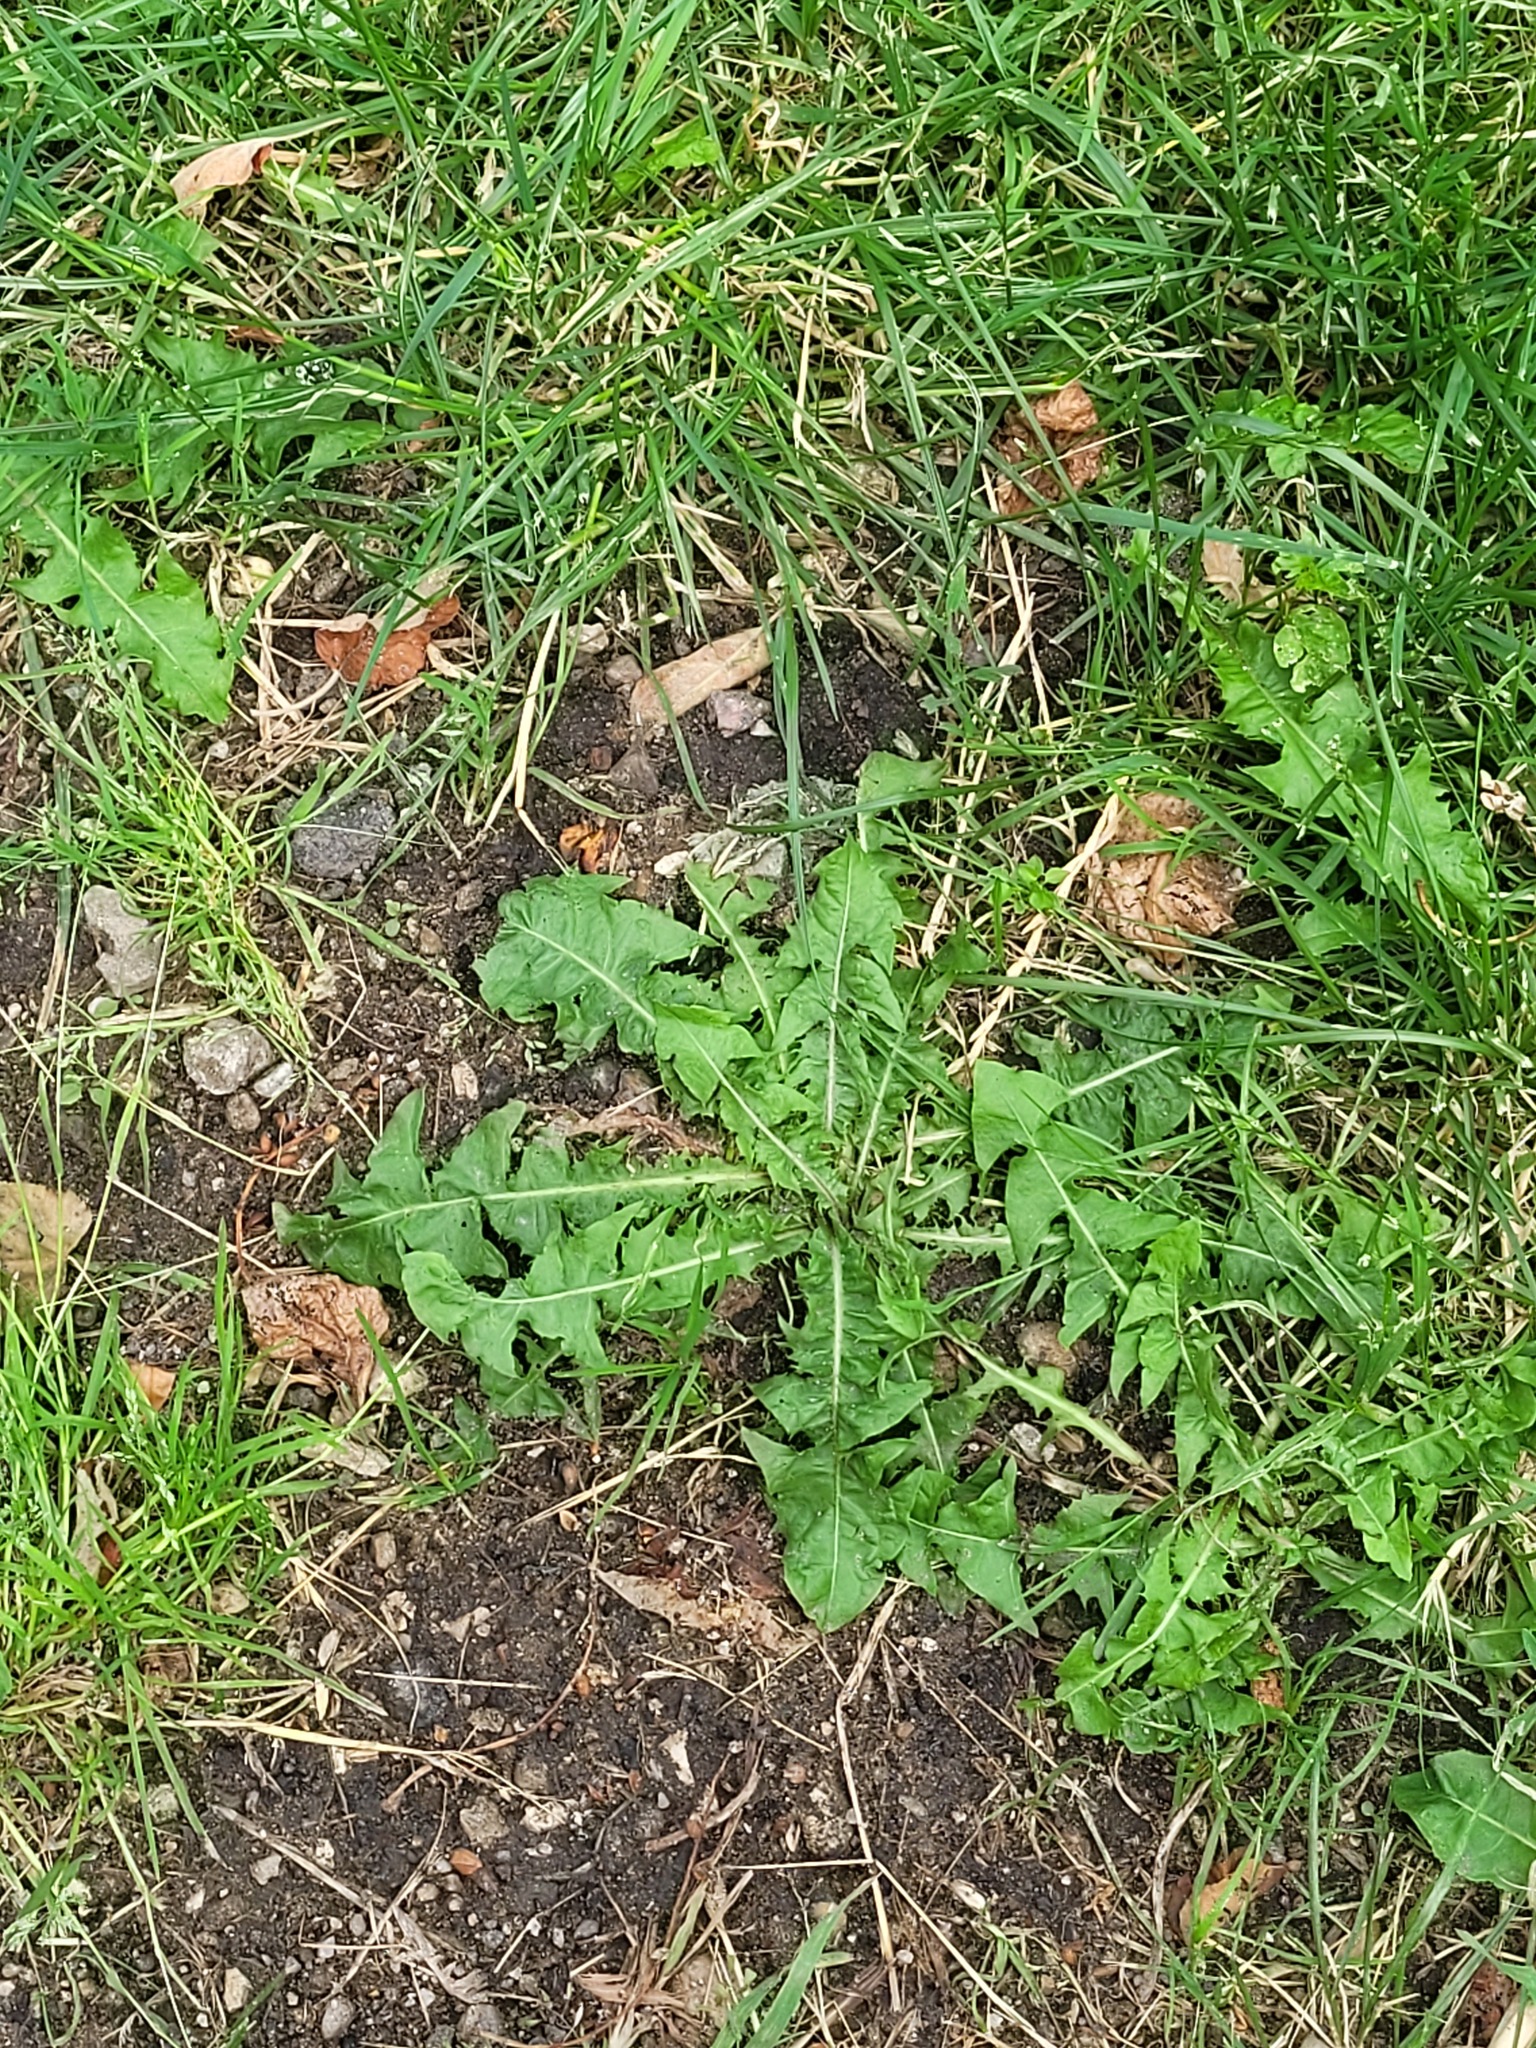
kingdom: Plantae
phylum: Tracheophyta
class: Magnoliopsida
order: Asterales
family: Asteraceae
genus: Taraxacum
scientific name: Taraxacum officinale
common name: Common dandelion
